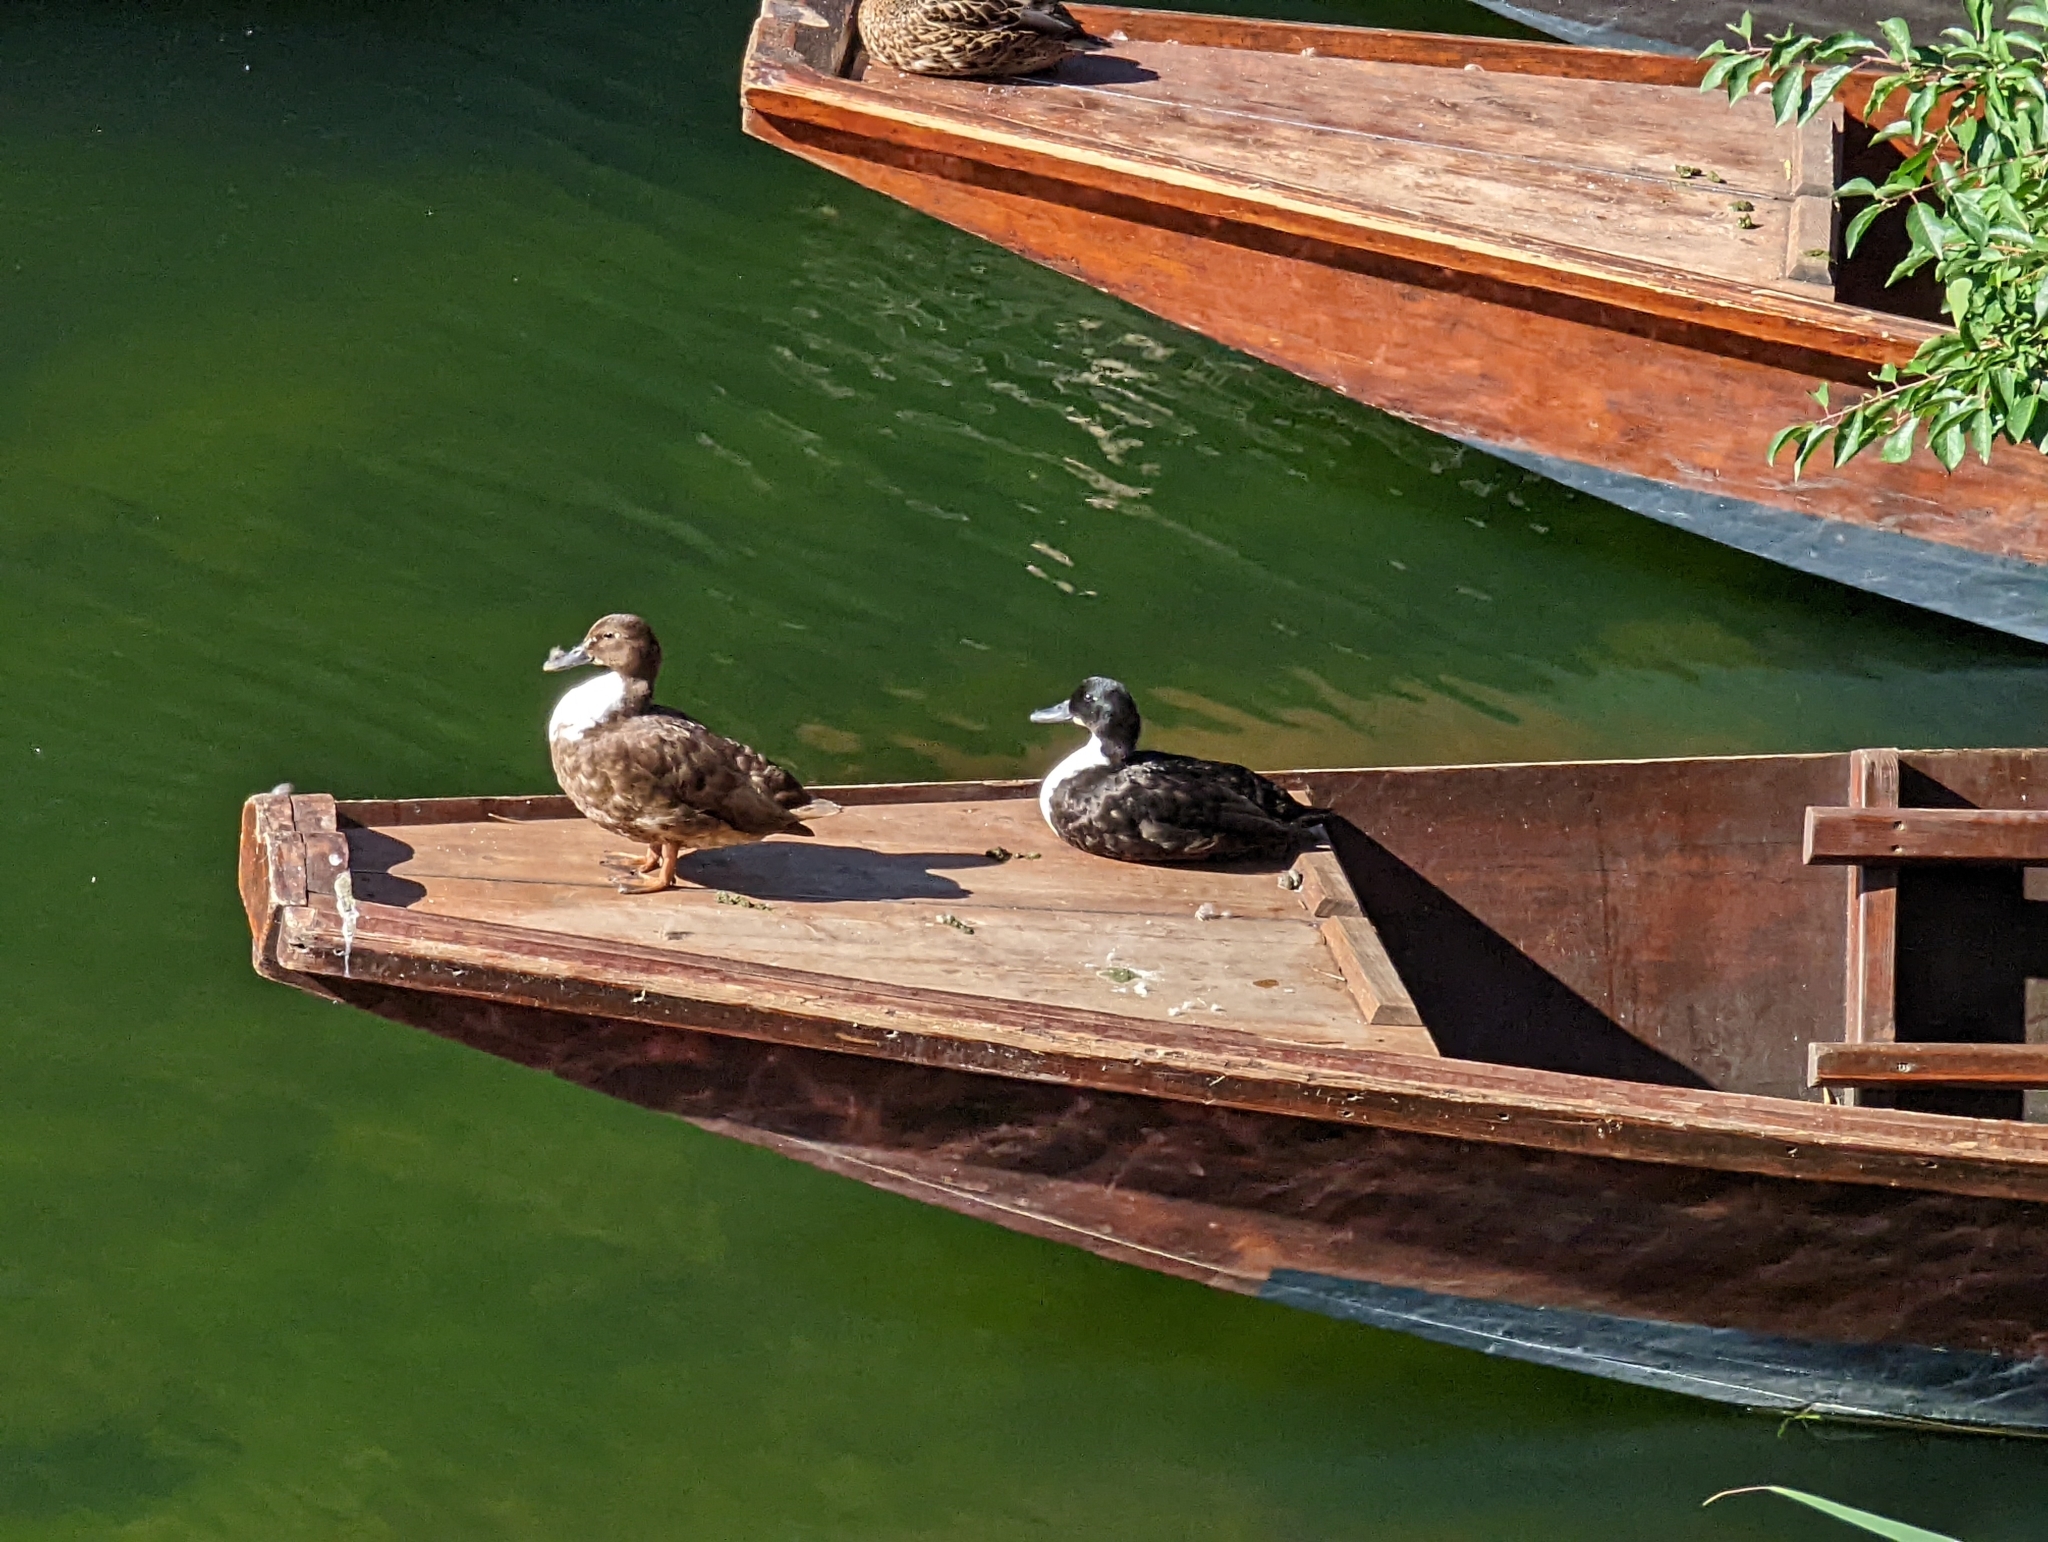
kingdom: Animalia
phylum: Chordata
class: Aves
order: Anseriformes
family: Anatidae
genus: Anas
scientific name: Anas platyrhynchos
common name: Mallard
